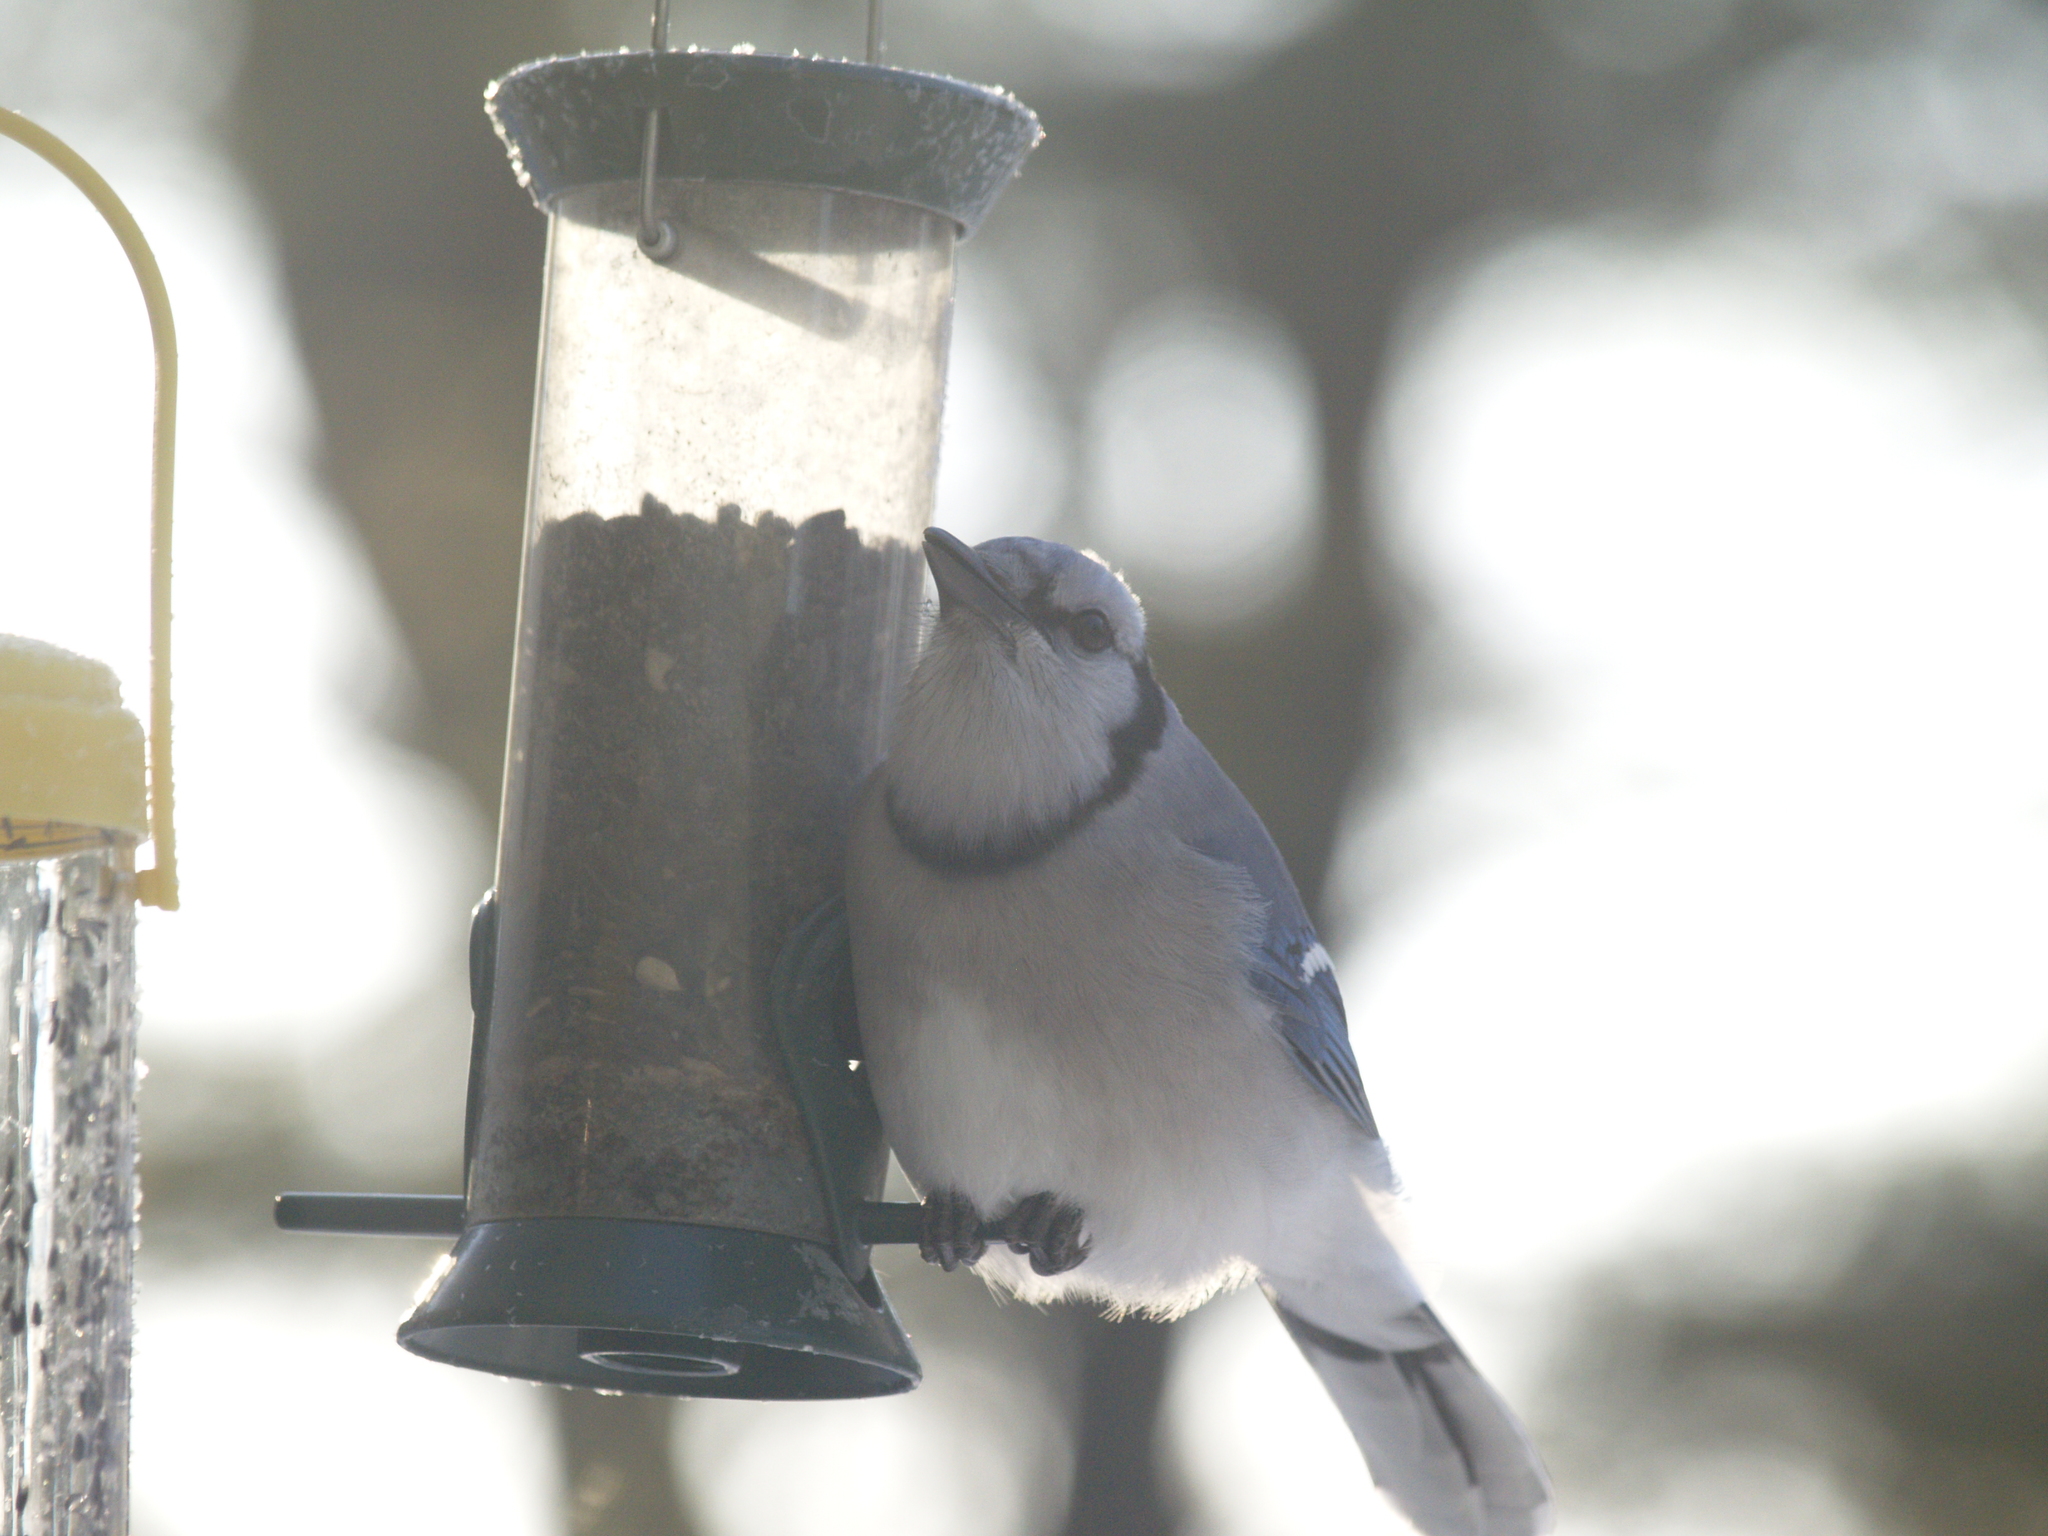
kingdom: Animalia
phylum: Chordata
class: Aves
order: Passeriformes
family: Corvidae
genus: Cyanocitta
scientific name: Cyanocitta cristata
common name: Blue jay
